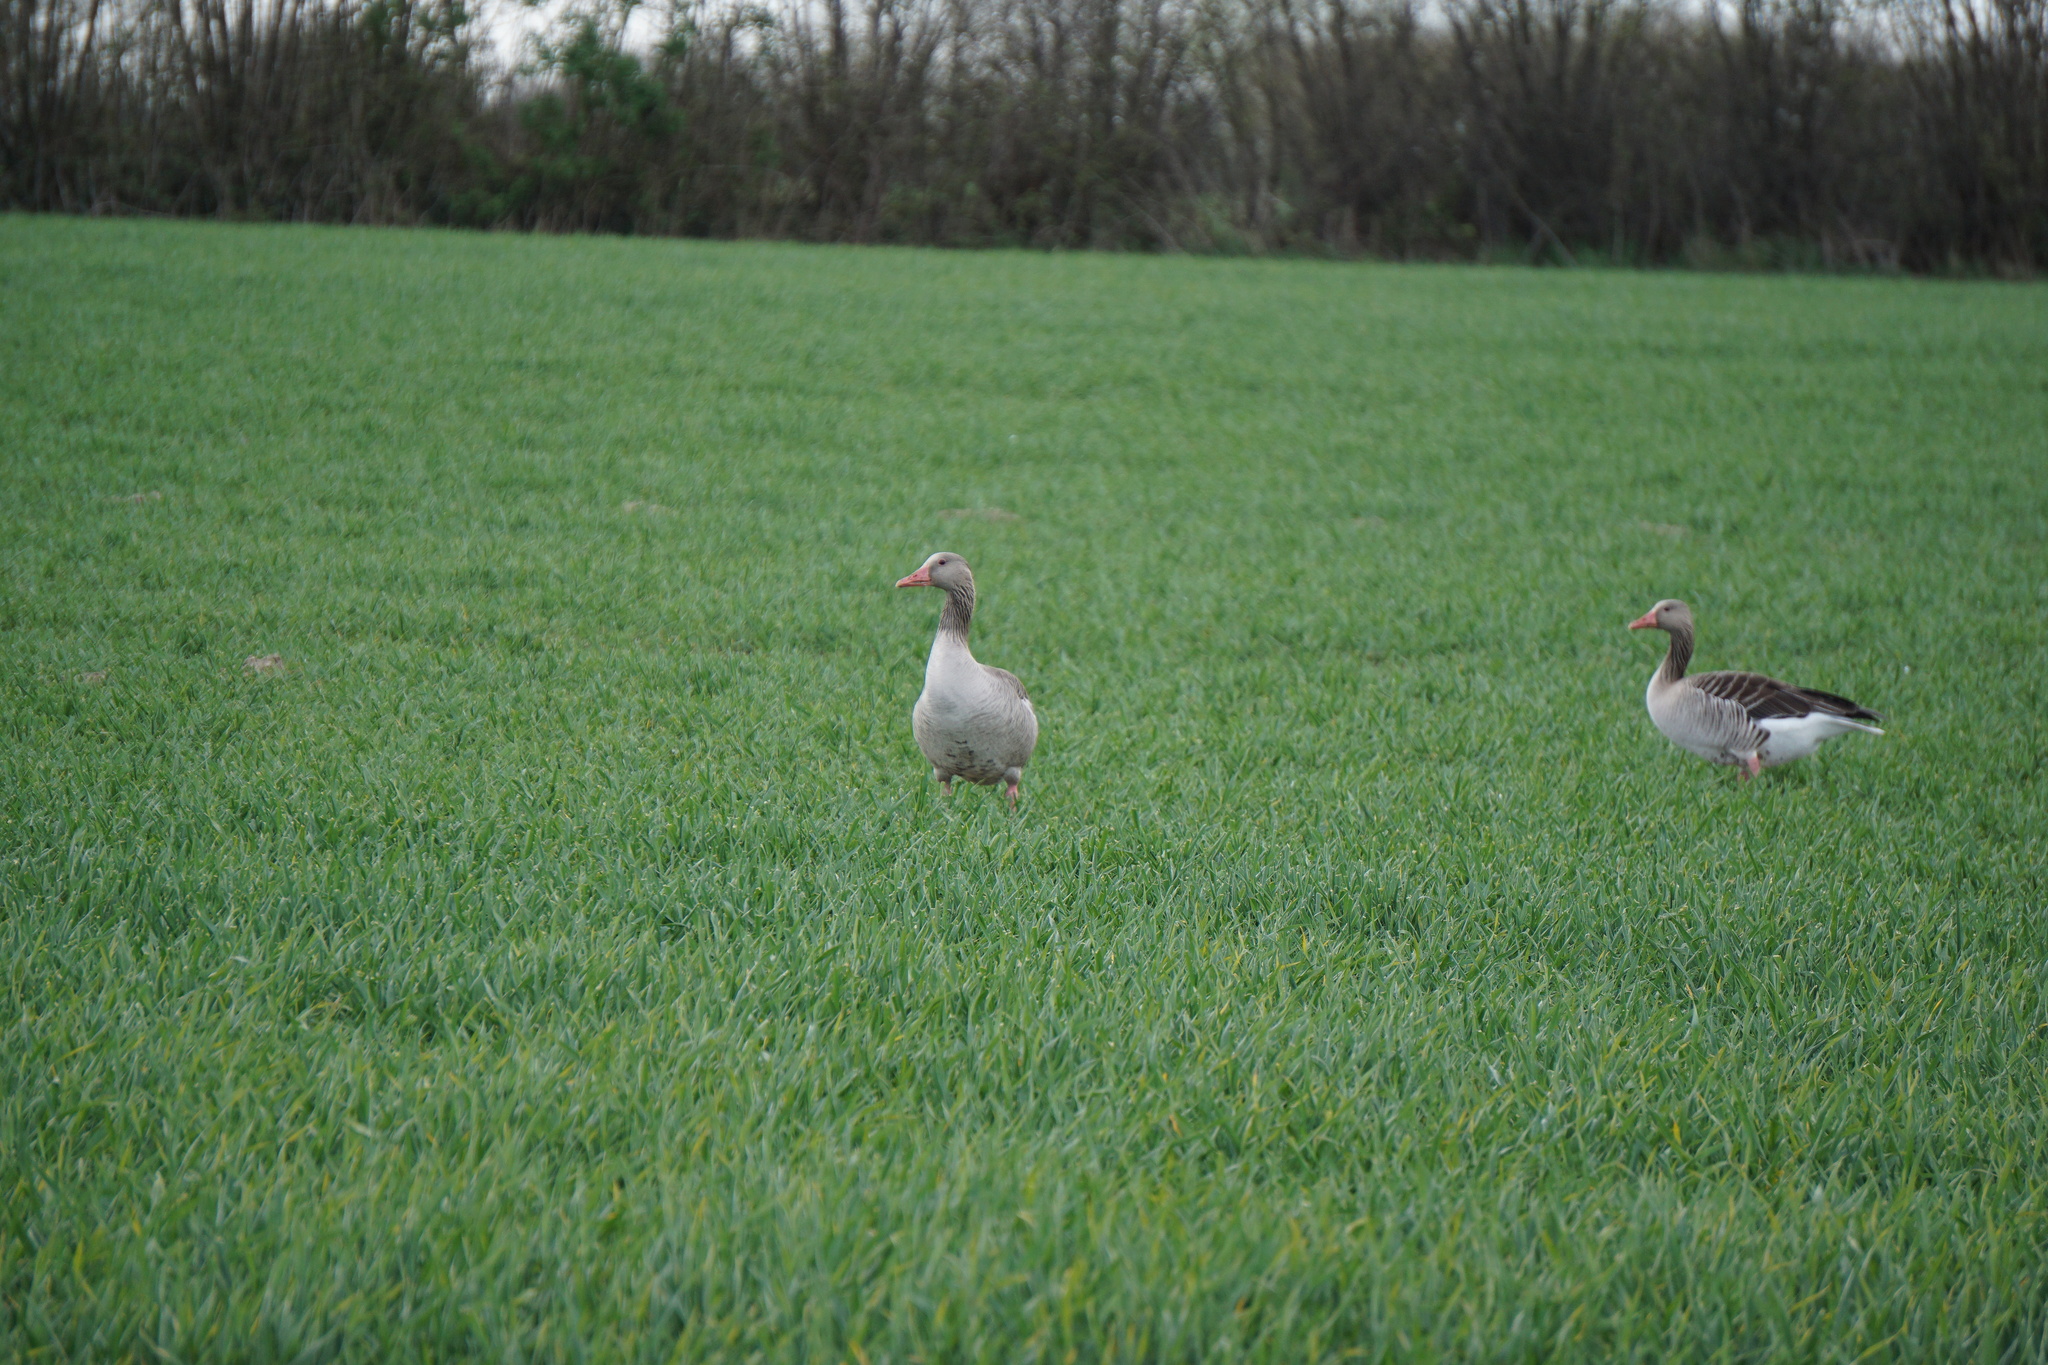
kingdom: Animalia
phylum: Chordata
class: Aves
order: Anseriformes
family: Anatidae
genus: Anser
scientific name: Anser anser
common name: Greylag goose
